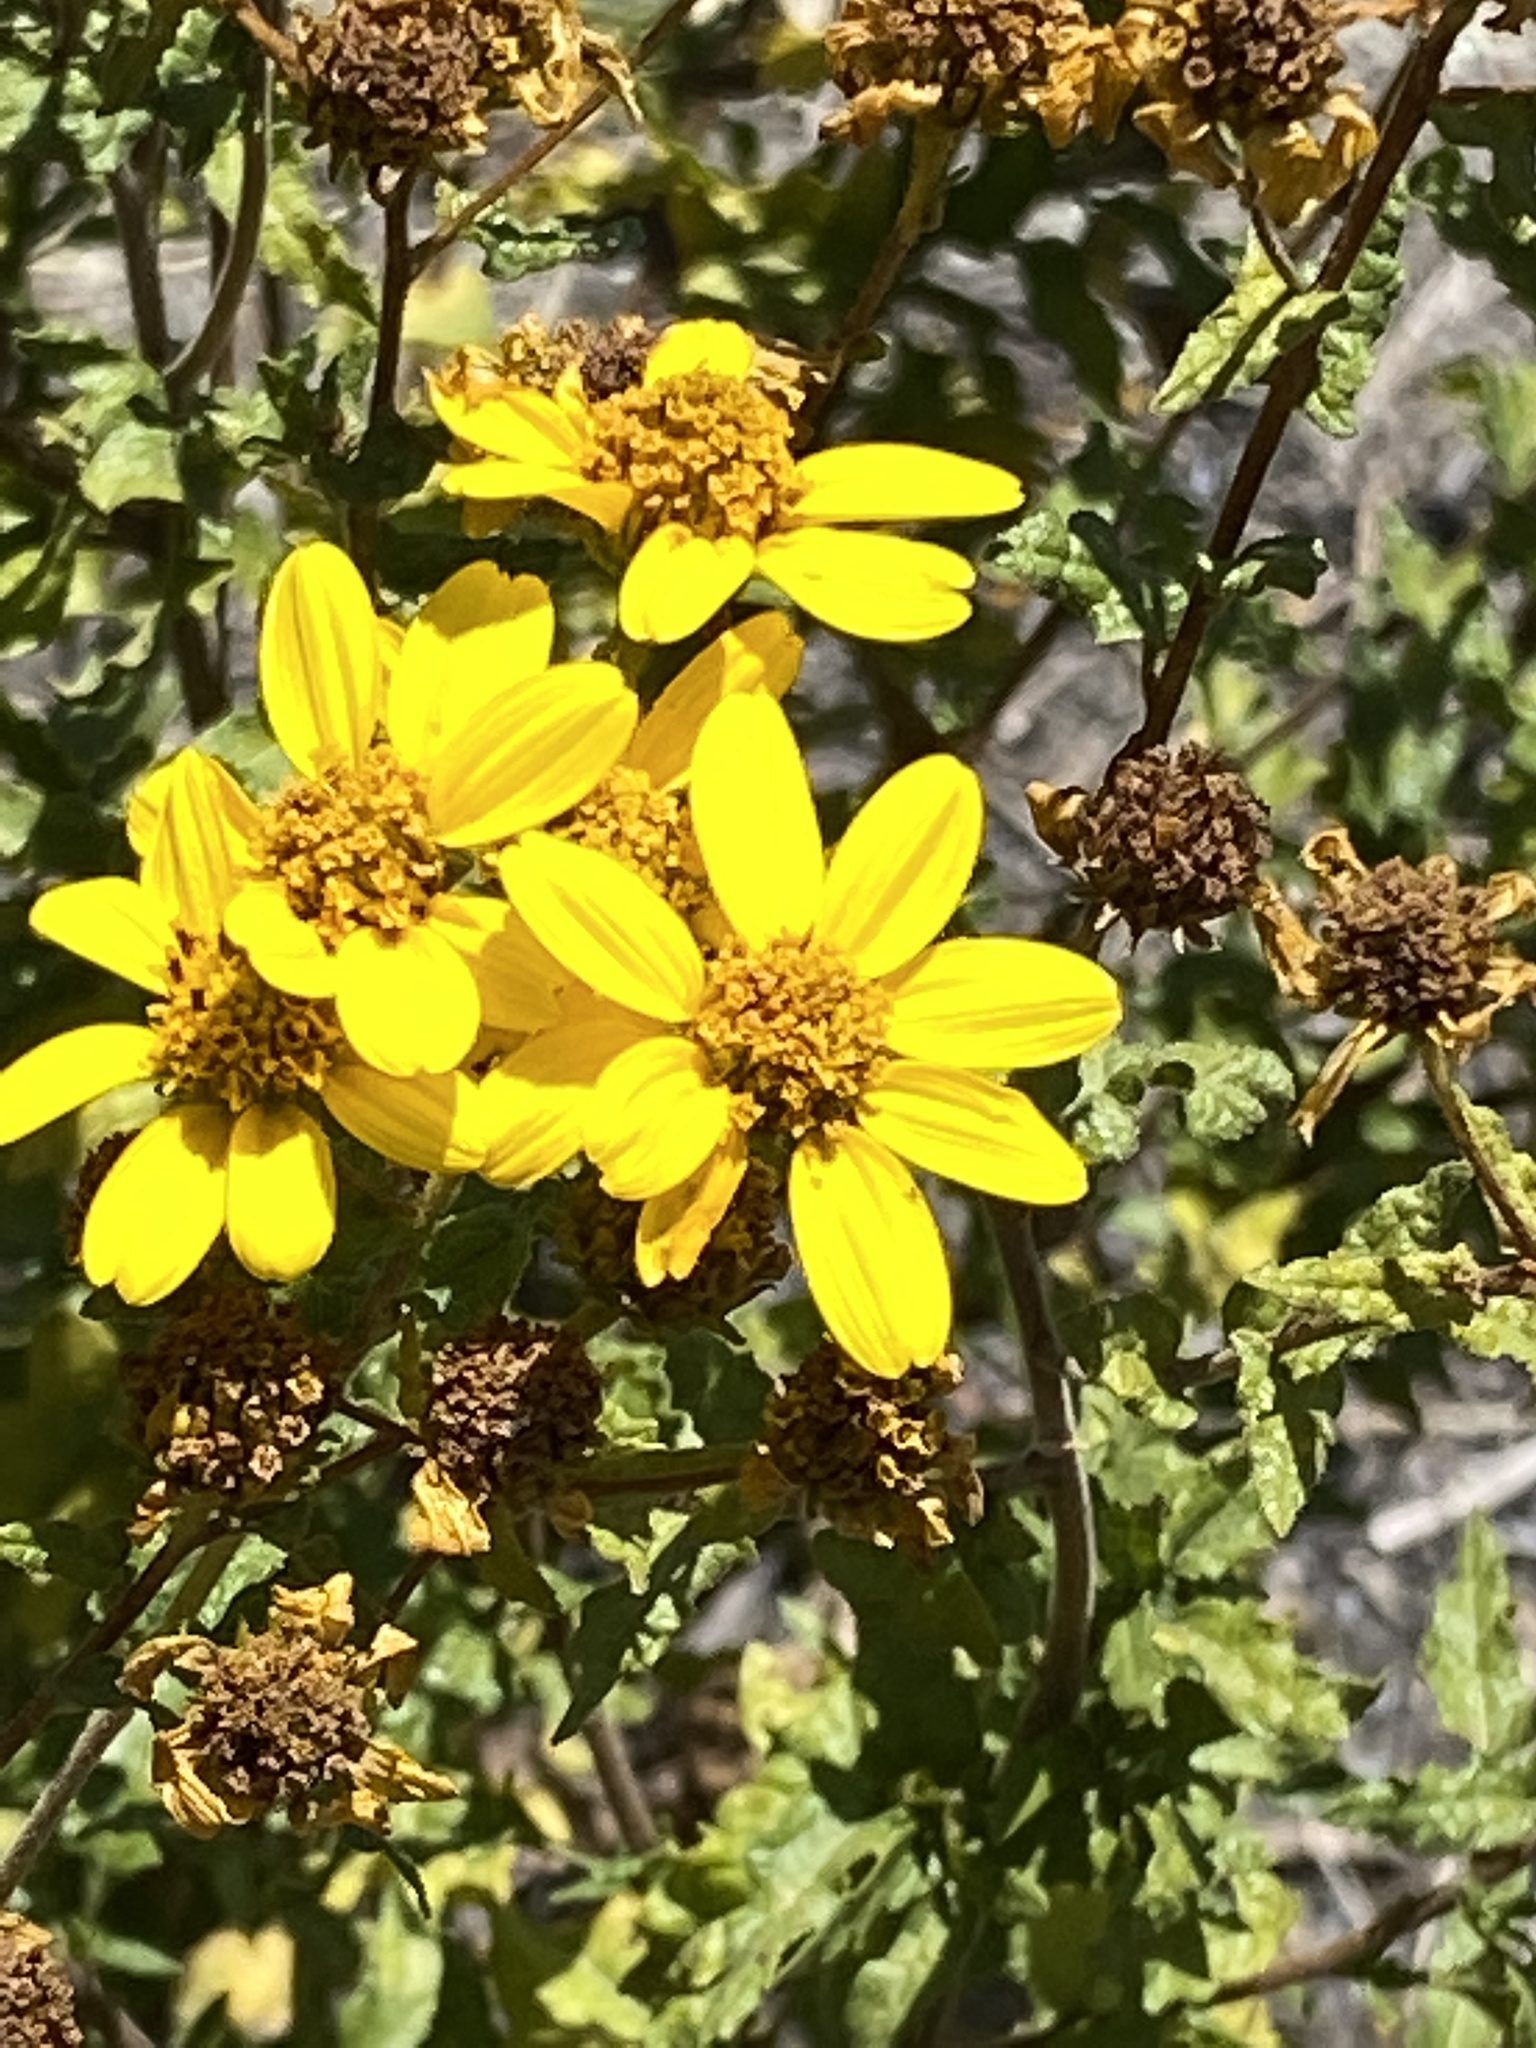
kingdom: Plantae
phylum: Tracheophyta
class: Magnoliopsida
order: Asterales
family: Asteraceae
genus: Bahiopsis
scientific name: Bahiopsis laciniata
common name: San diego county viguiera
